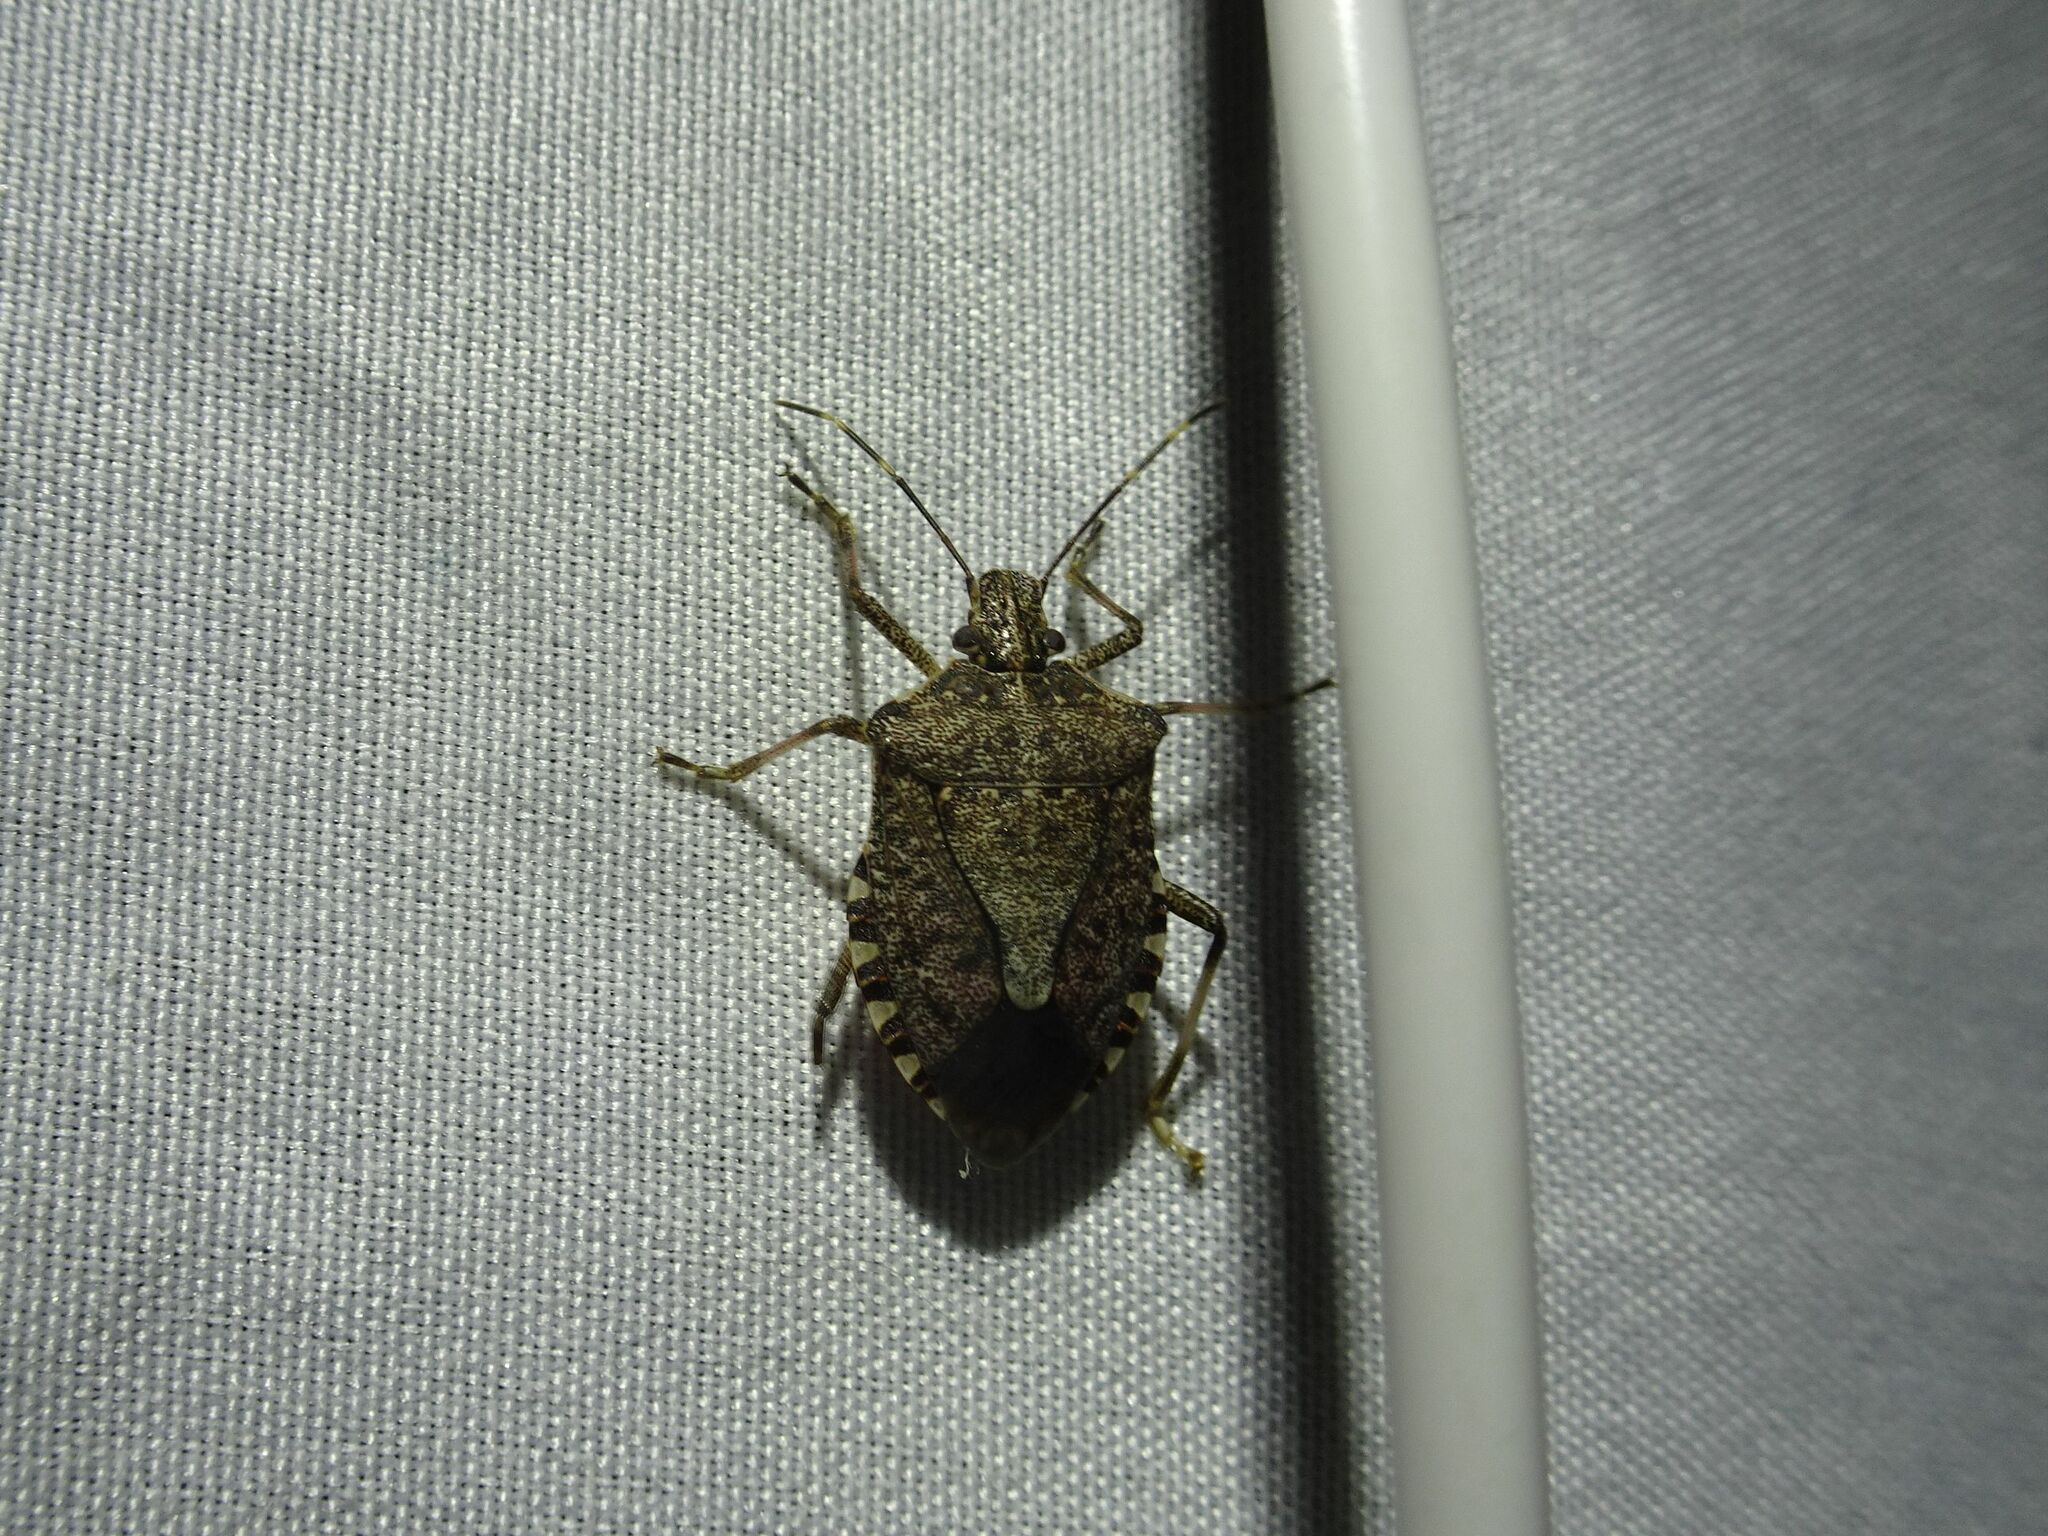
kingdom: Animalia
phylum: Arthropoda
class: Insecta
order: Hemiptera
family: Pentatomidae
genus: Halyomorpha
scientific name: Halyomorpha halys
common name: Brown marmorated stink bug
